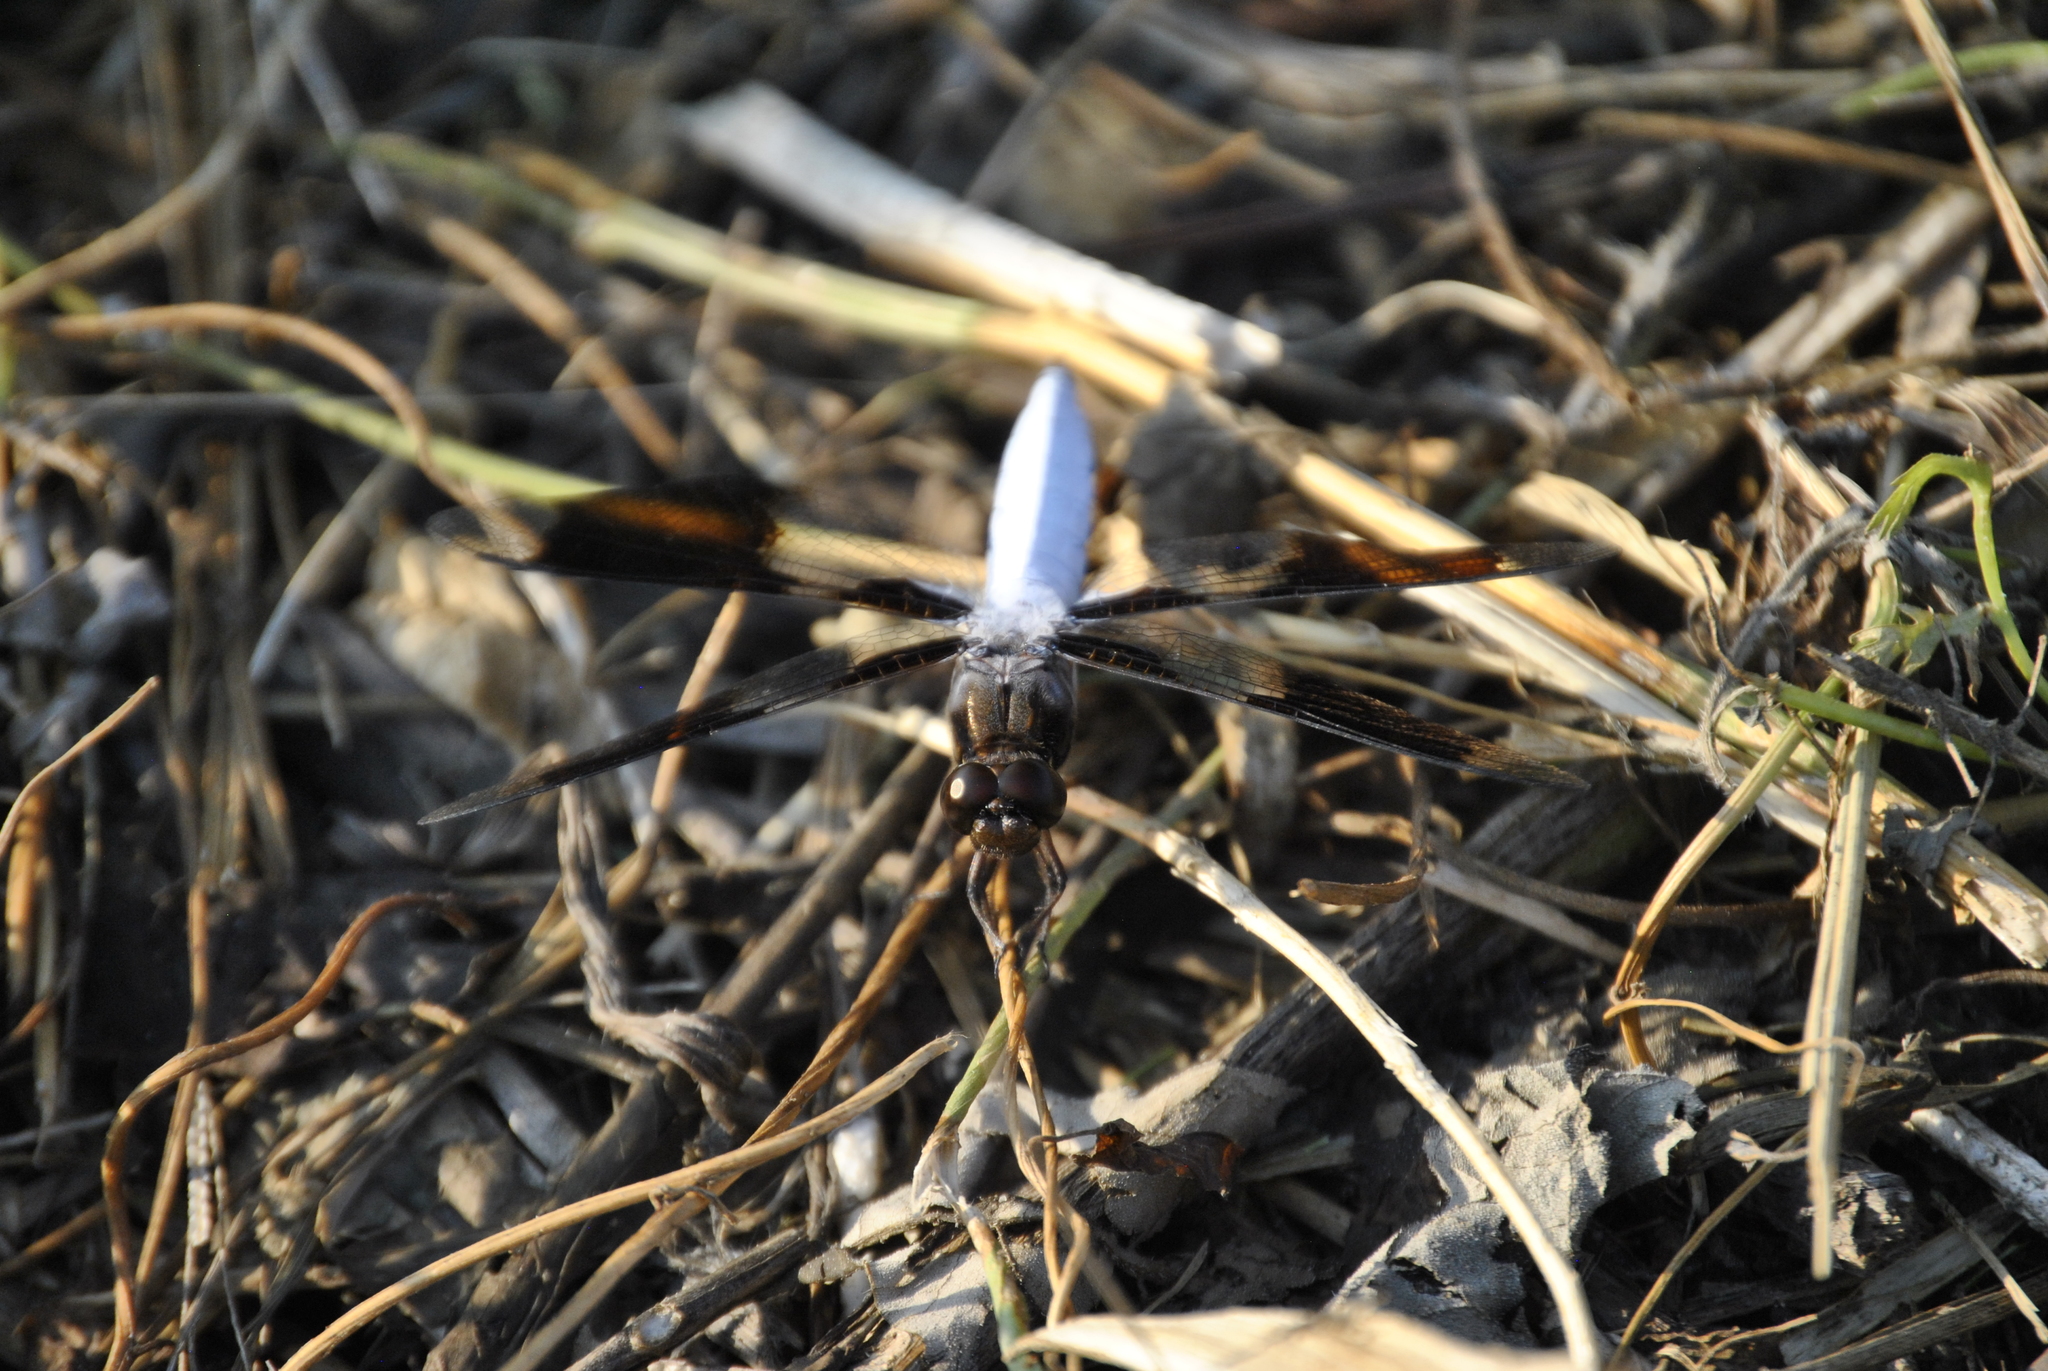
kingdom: Animalia
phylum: Arthropoda
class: Insecta
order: Odonata
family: Libellulidae
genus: Plathemis
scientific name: Plathemis lydia
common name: Common whitetail
